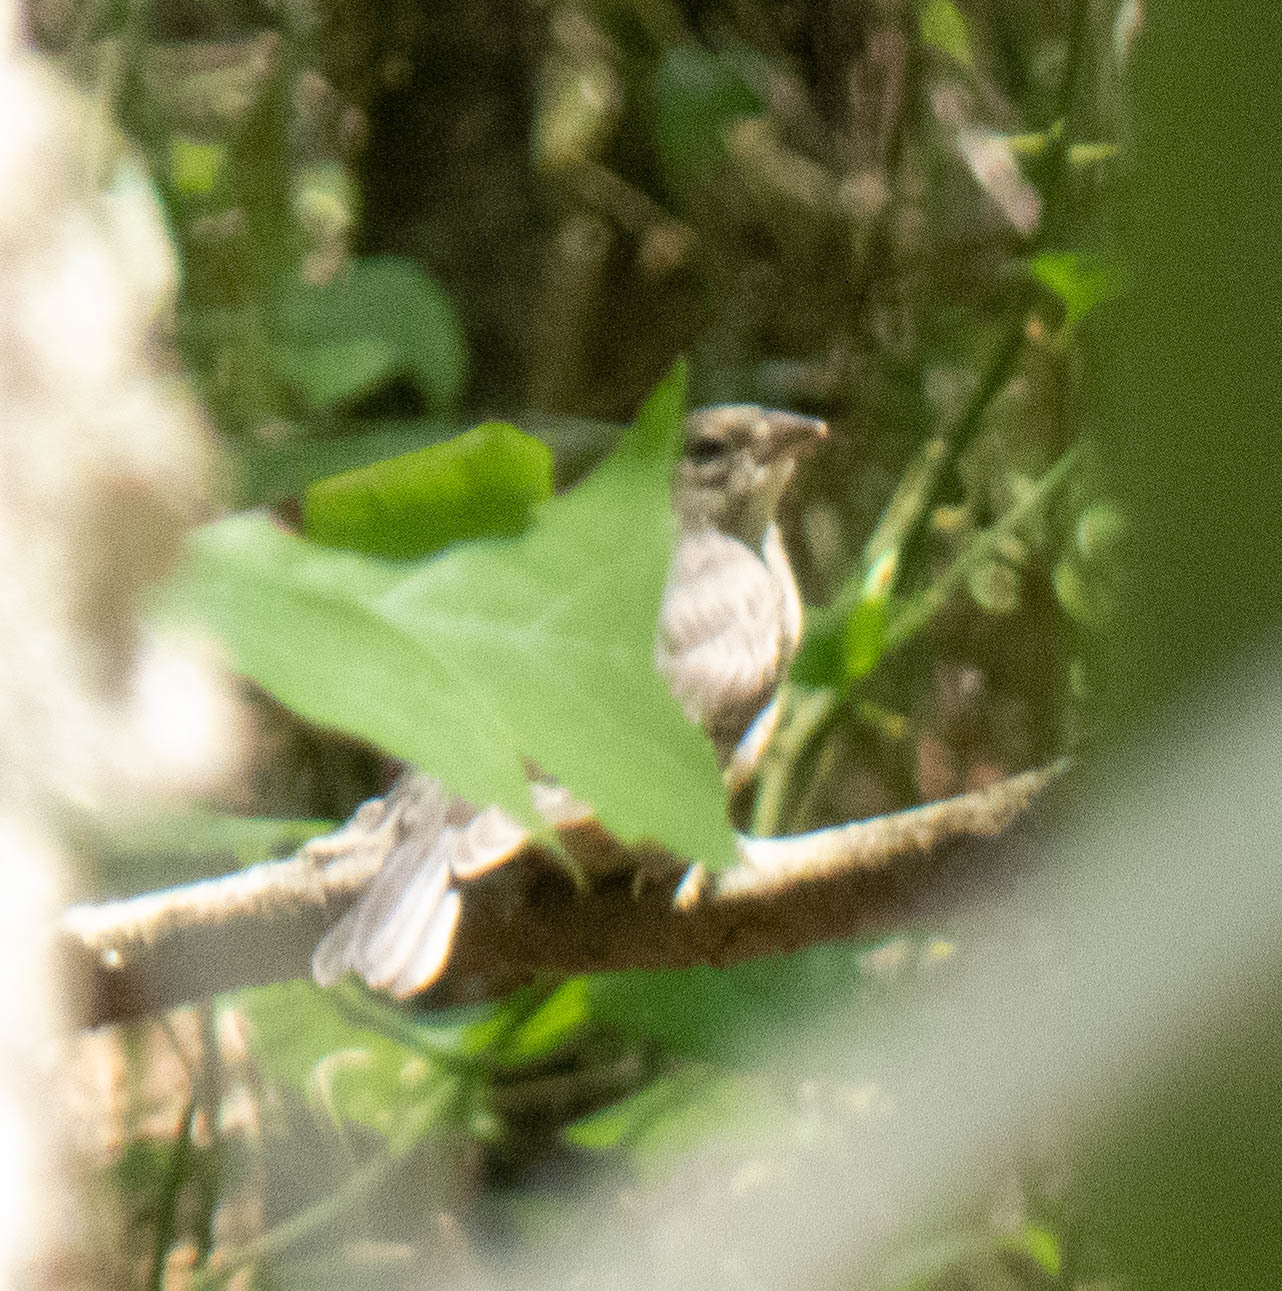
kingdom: Animalia
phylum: Chordata
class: Aves
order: Passeriformes
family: Icteridae
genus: Molothrus
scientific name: Molothrus ater
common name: Brown-headed cowbird
